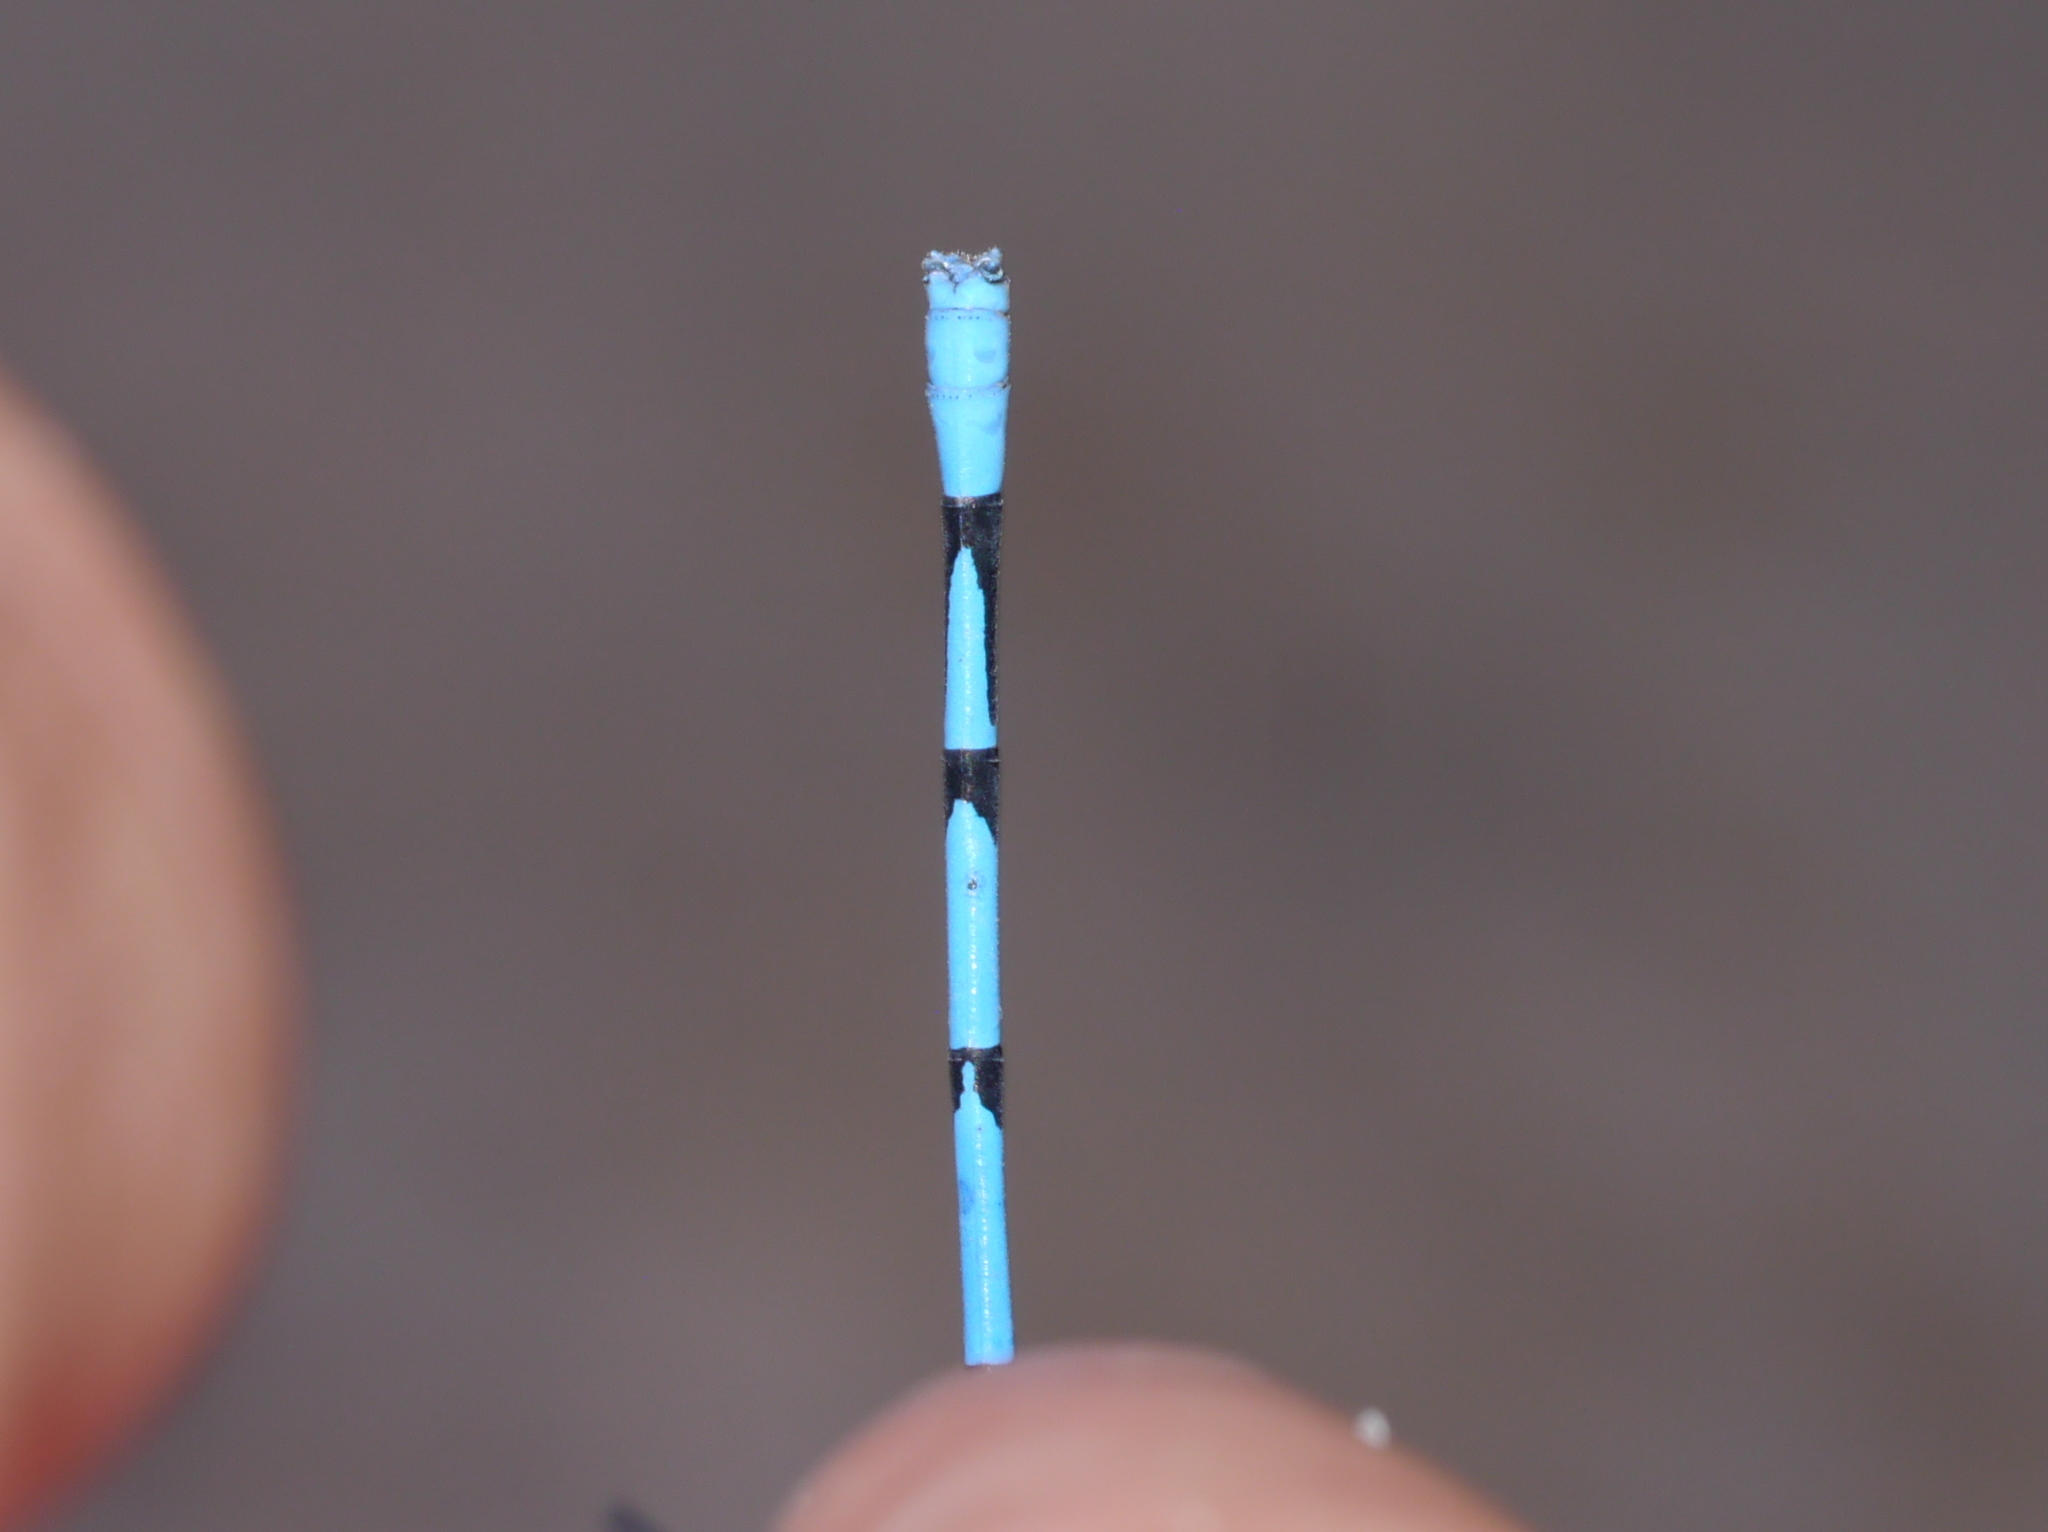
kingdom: Animalia
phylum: Arthropoda
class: Insecta
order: Odonata
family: Coenagrionidae
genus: Argia
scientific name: Argia lacrimans
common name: Sierra madre dancer
